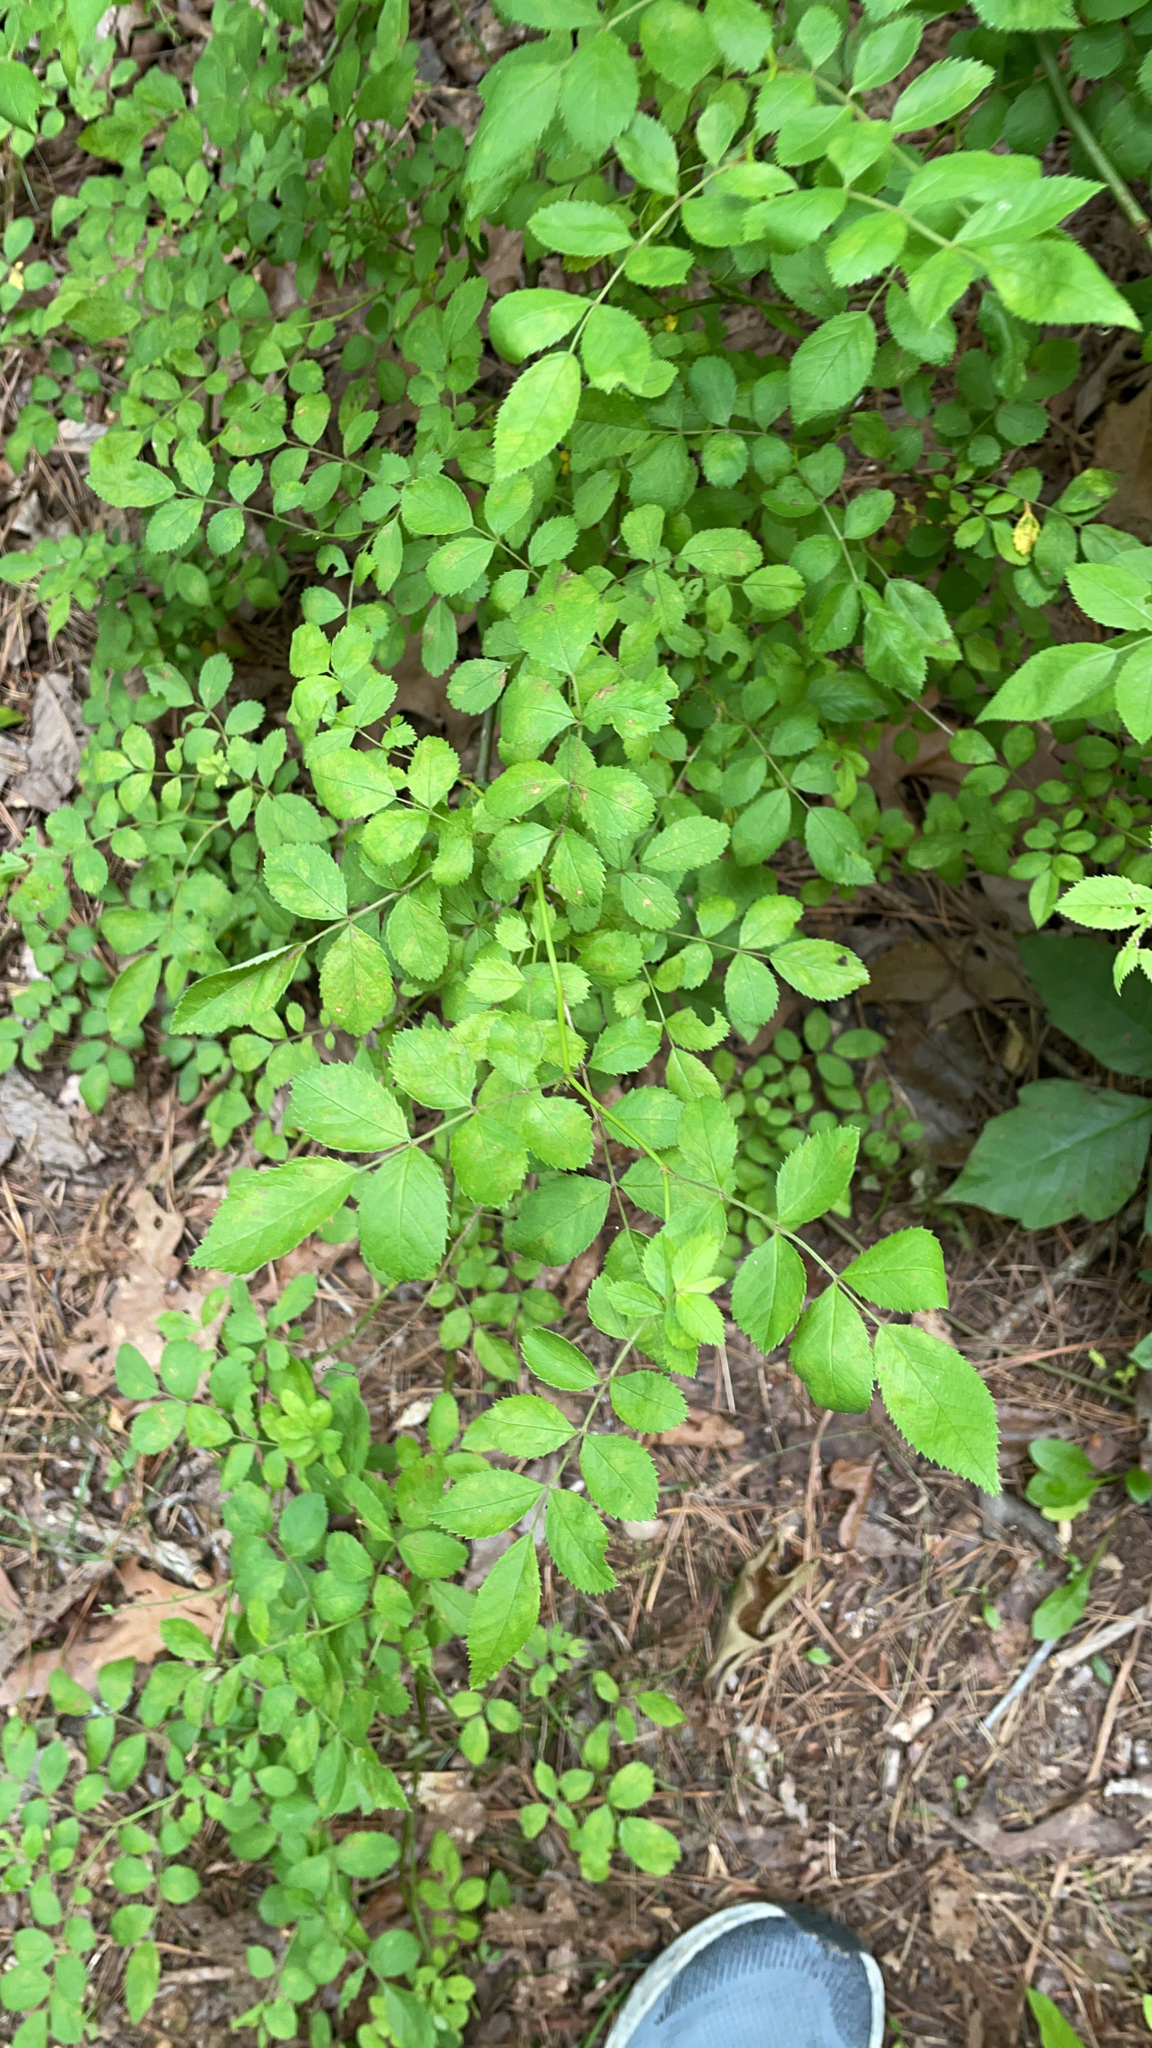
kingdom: Plantae
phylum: Tracheophyta
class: Magnoliopsida
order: Rosales
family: Rosaceae
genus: Rosa
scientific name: Rosa multiflora
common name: Multiflora rose
